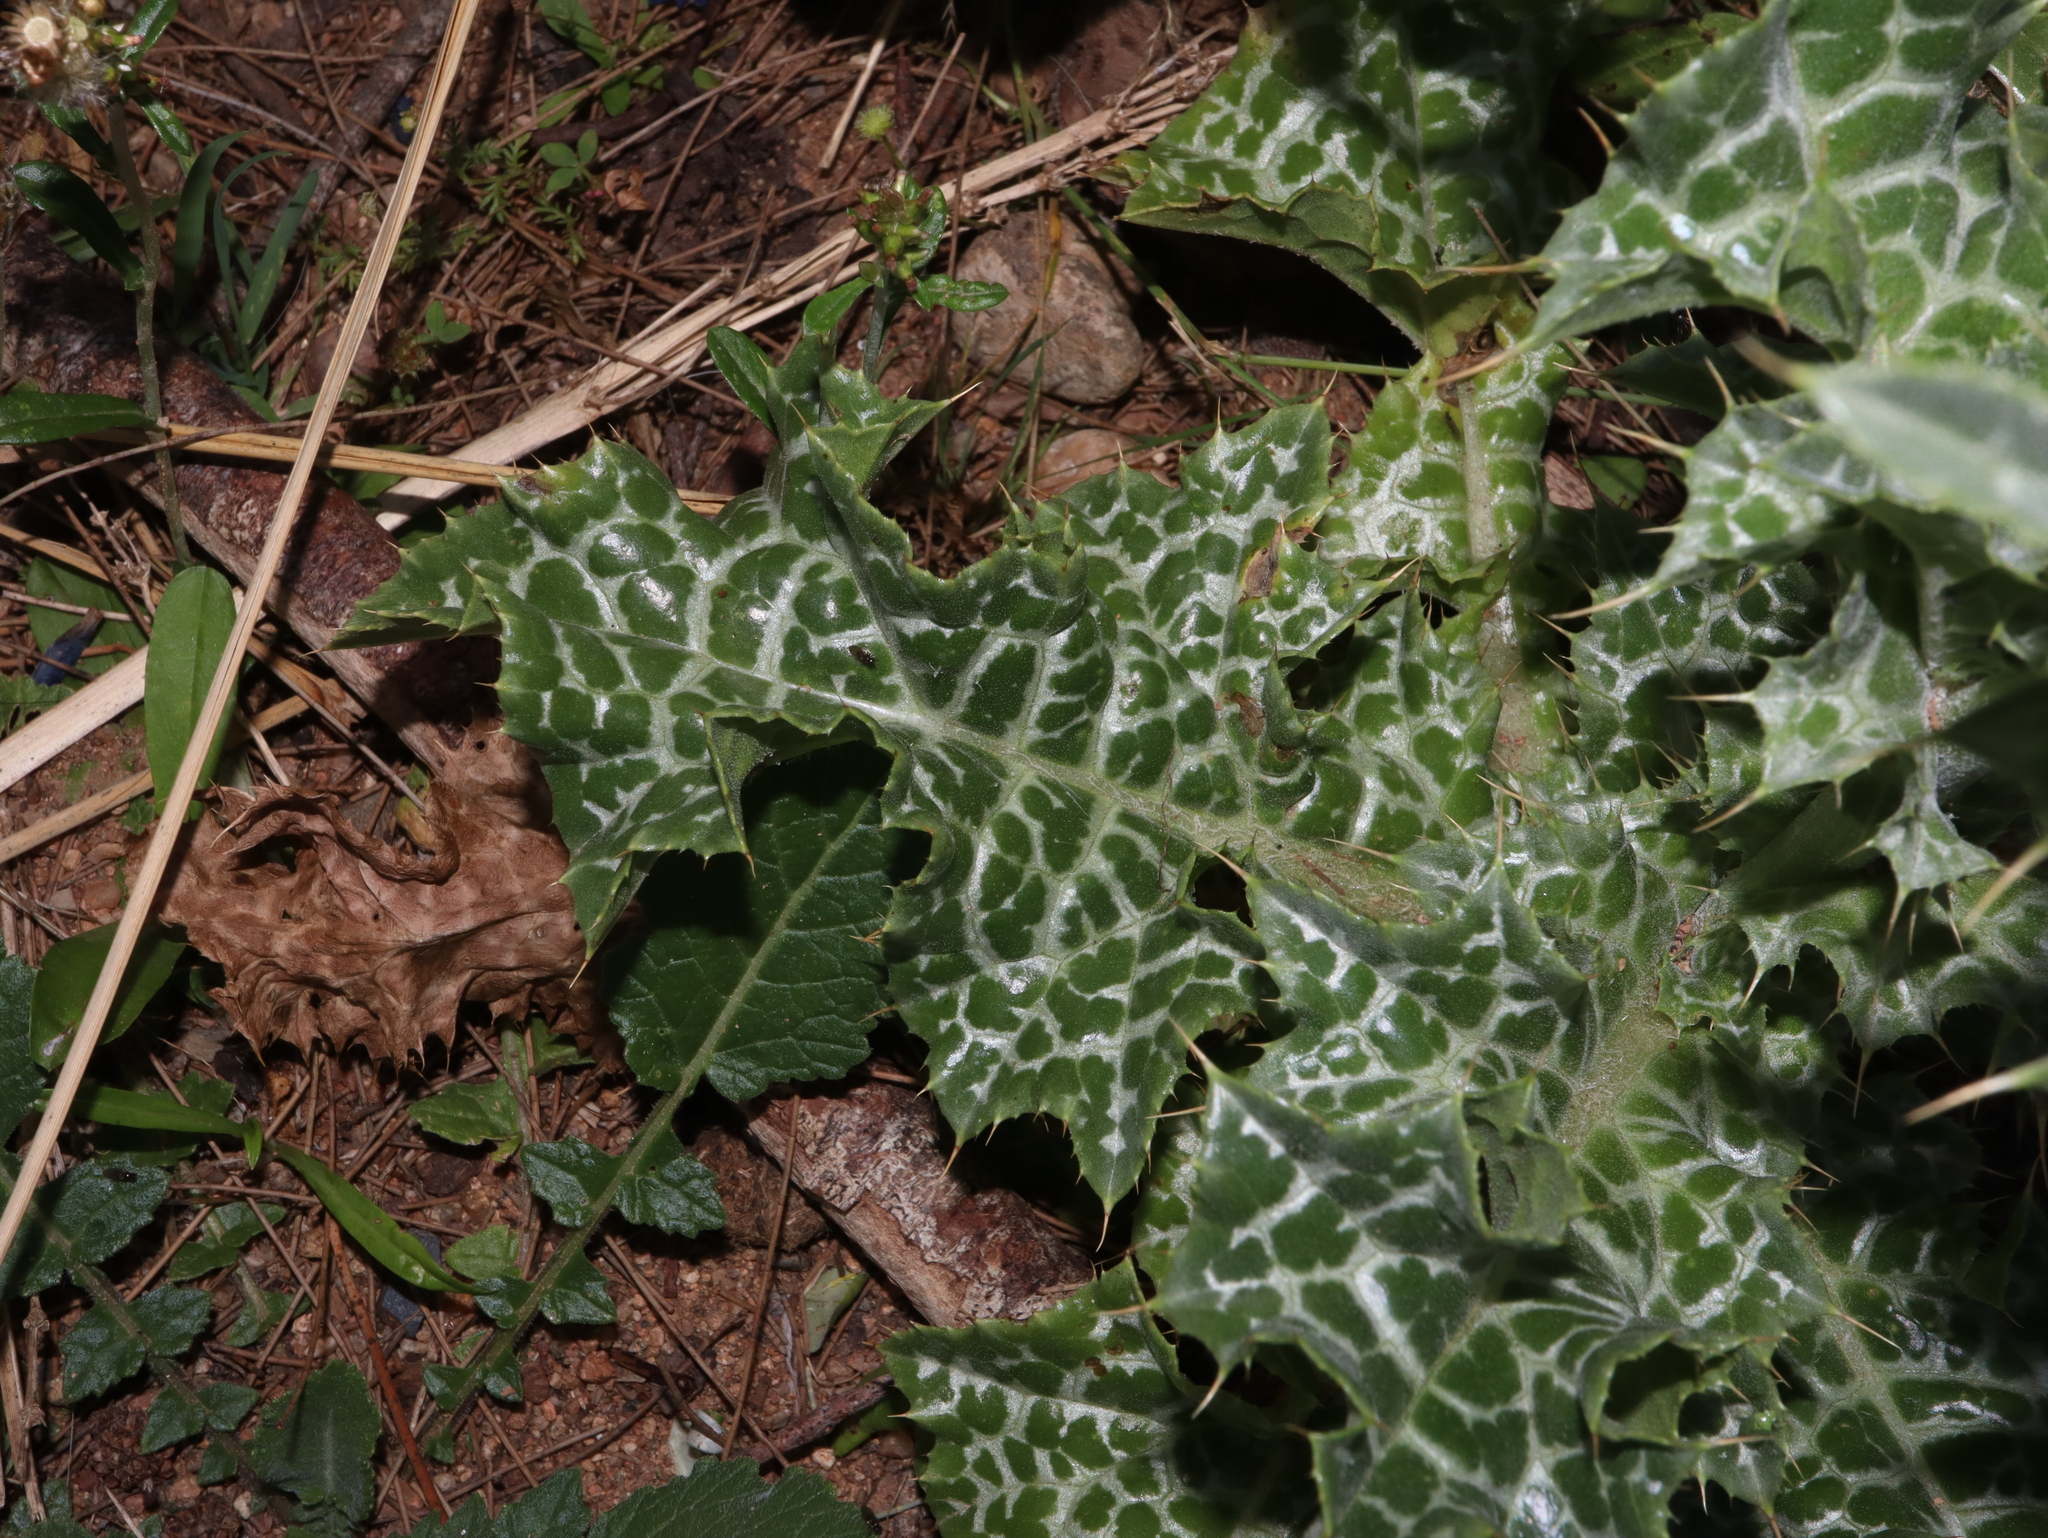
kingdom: Plantae
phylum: Tracheophyta
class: Magnoliopsida
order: Asterales
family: Asteraceae
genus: Silybum
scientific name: Silybum marianum
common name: Milk thistle
